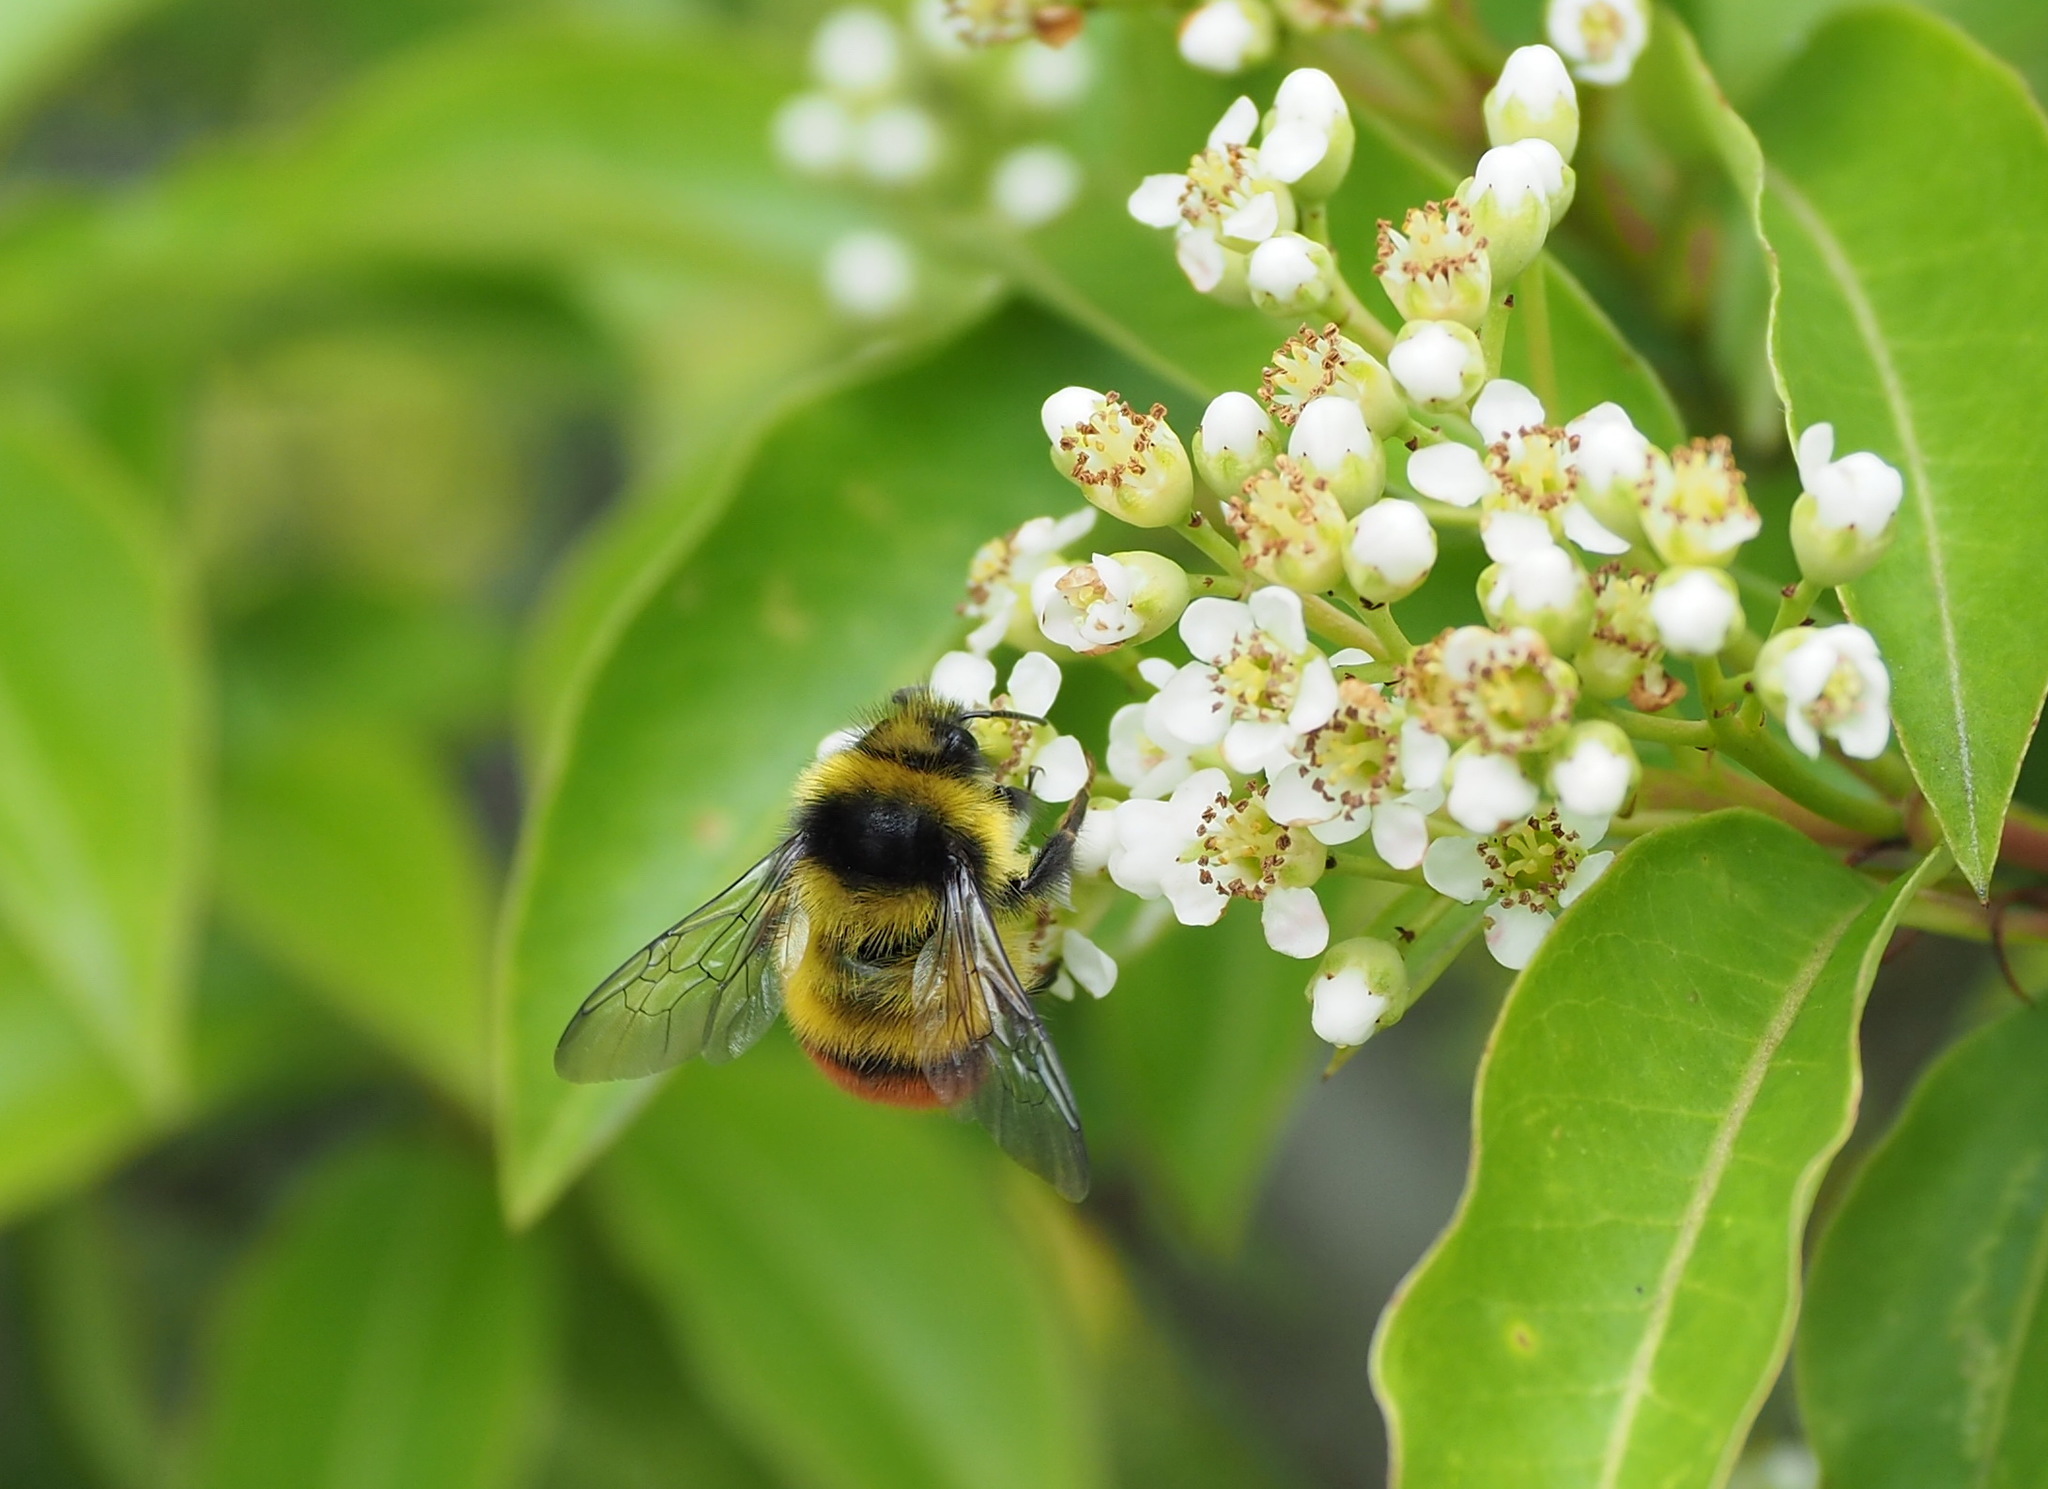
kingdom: Animalia
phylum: Arthropoda
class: Insecta
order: Hymenoptera
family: Apidae
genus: Bombus
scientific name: Bombus formosellus
